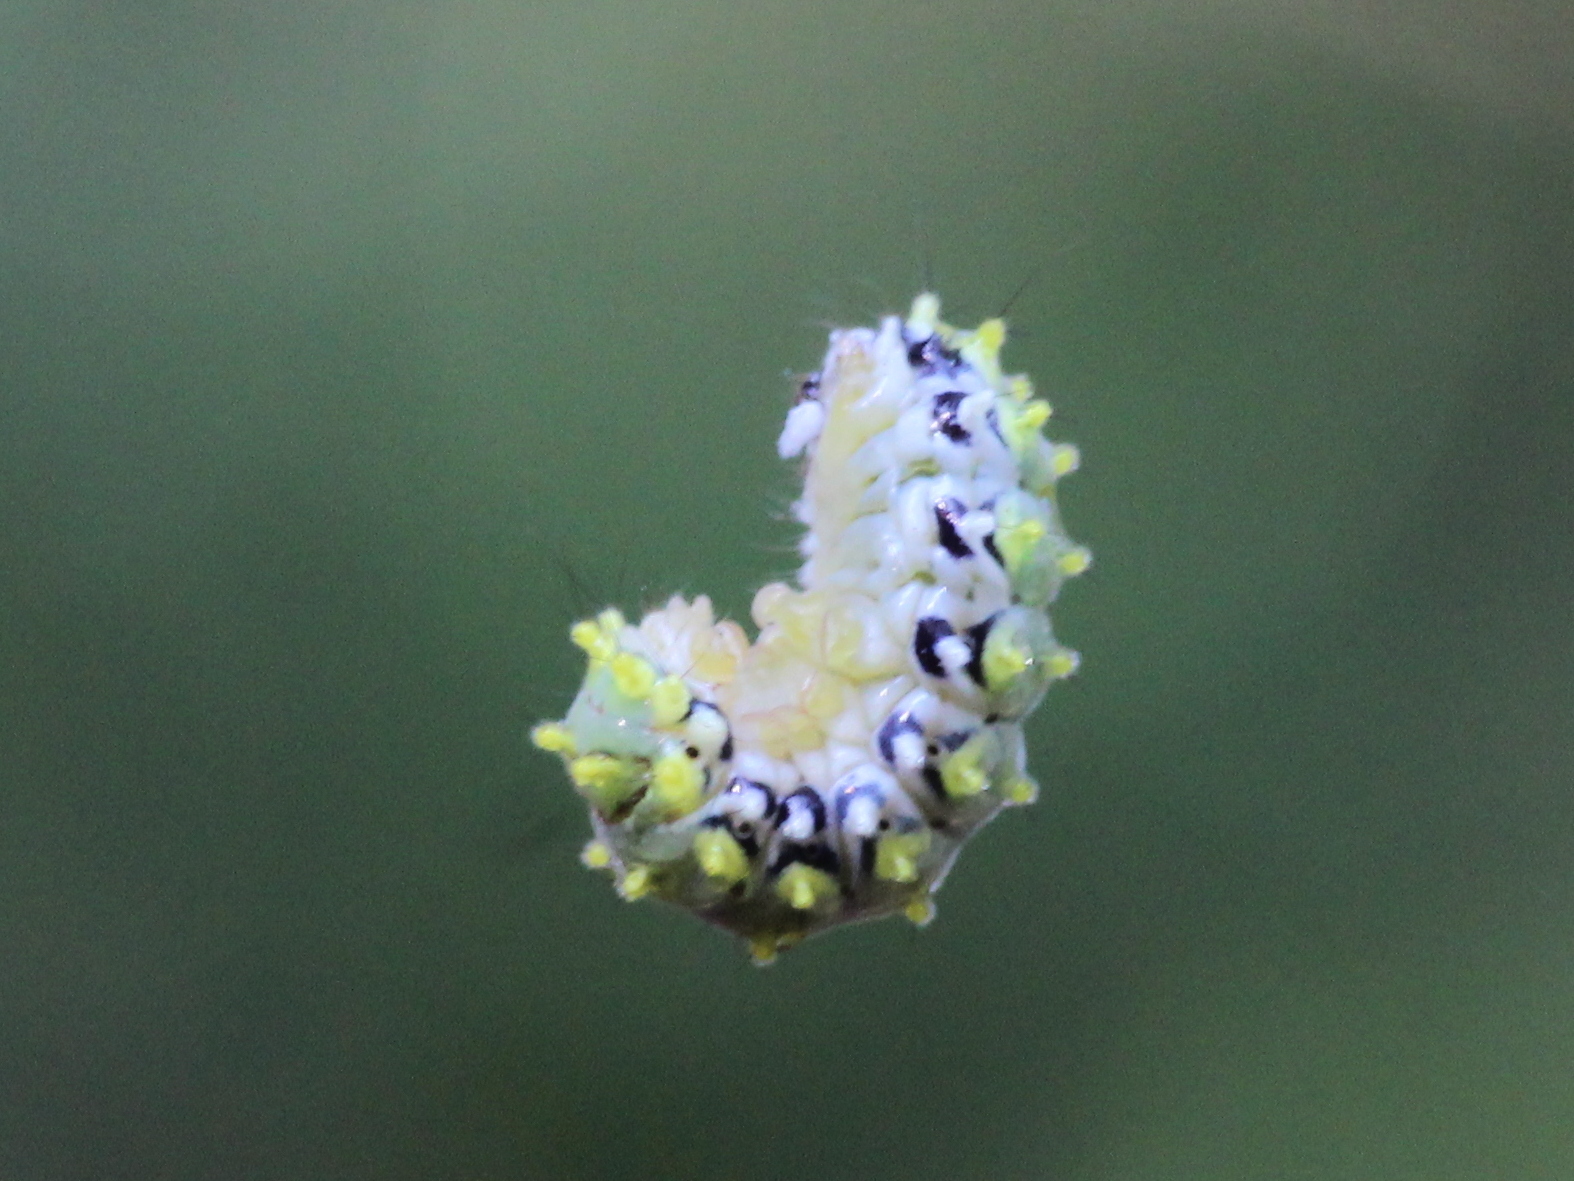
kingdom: Animalia
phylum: Arthropoda
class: Insecta
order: Lepidoptera
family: Zygaenidae
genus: Cyclosia
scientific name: Cyclosia
